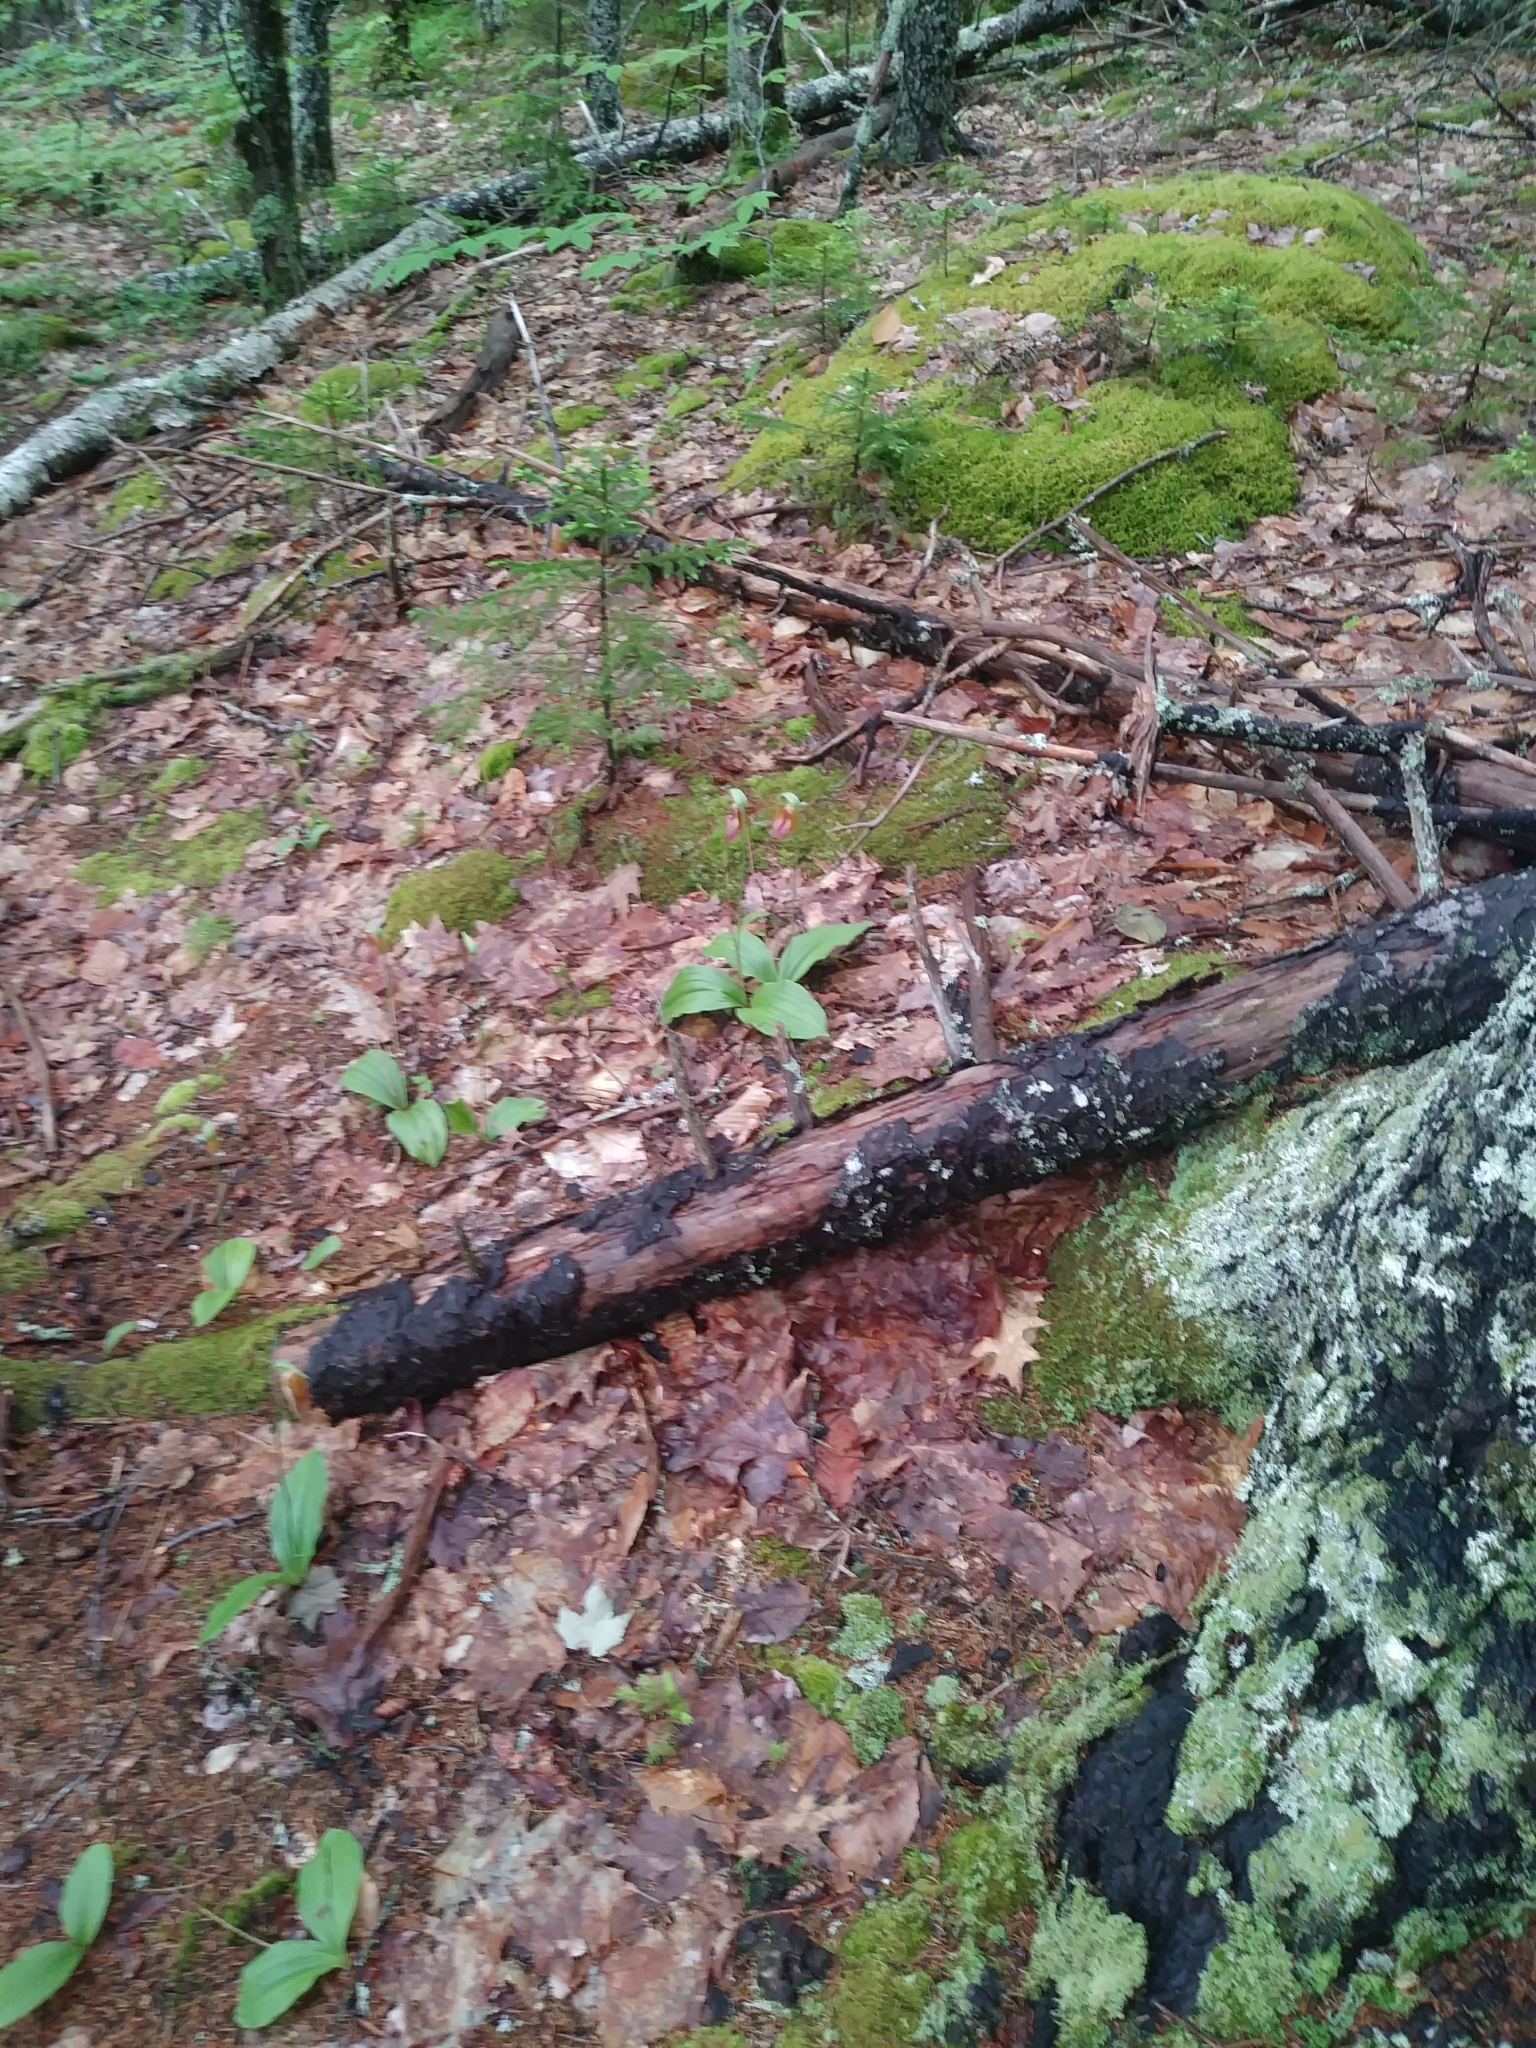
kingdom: Plantae
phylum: Tracheophyta
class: Liliopsida
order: Asparagales
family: Orchidaceae
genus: Cypripedium
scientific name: Cypripedium acaule
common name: Pink lady's-slipper
